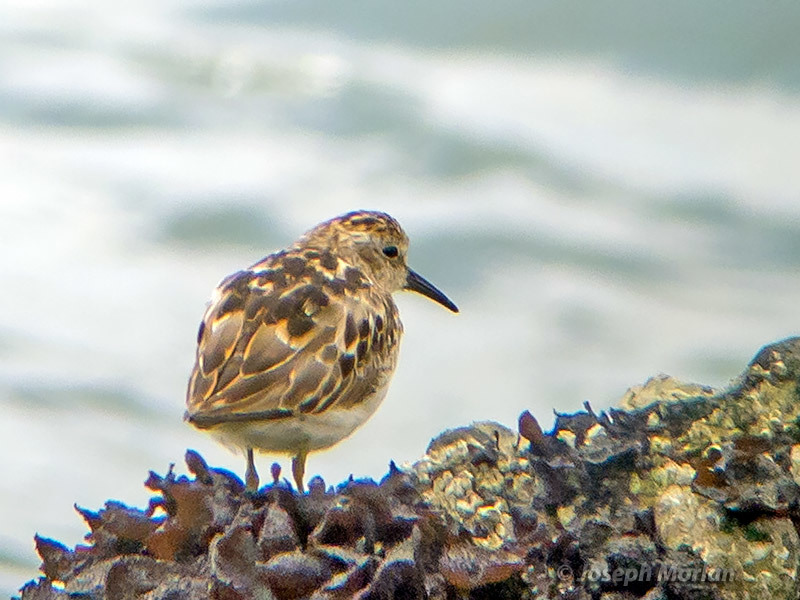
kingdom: Animalia
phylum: Chordata
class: Aves
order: Charadriiformes
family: Scolopacidae
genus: Calidris
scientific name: Calidris minutilla
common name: Least sandpiper
